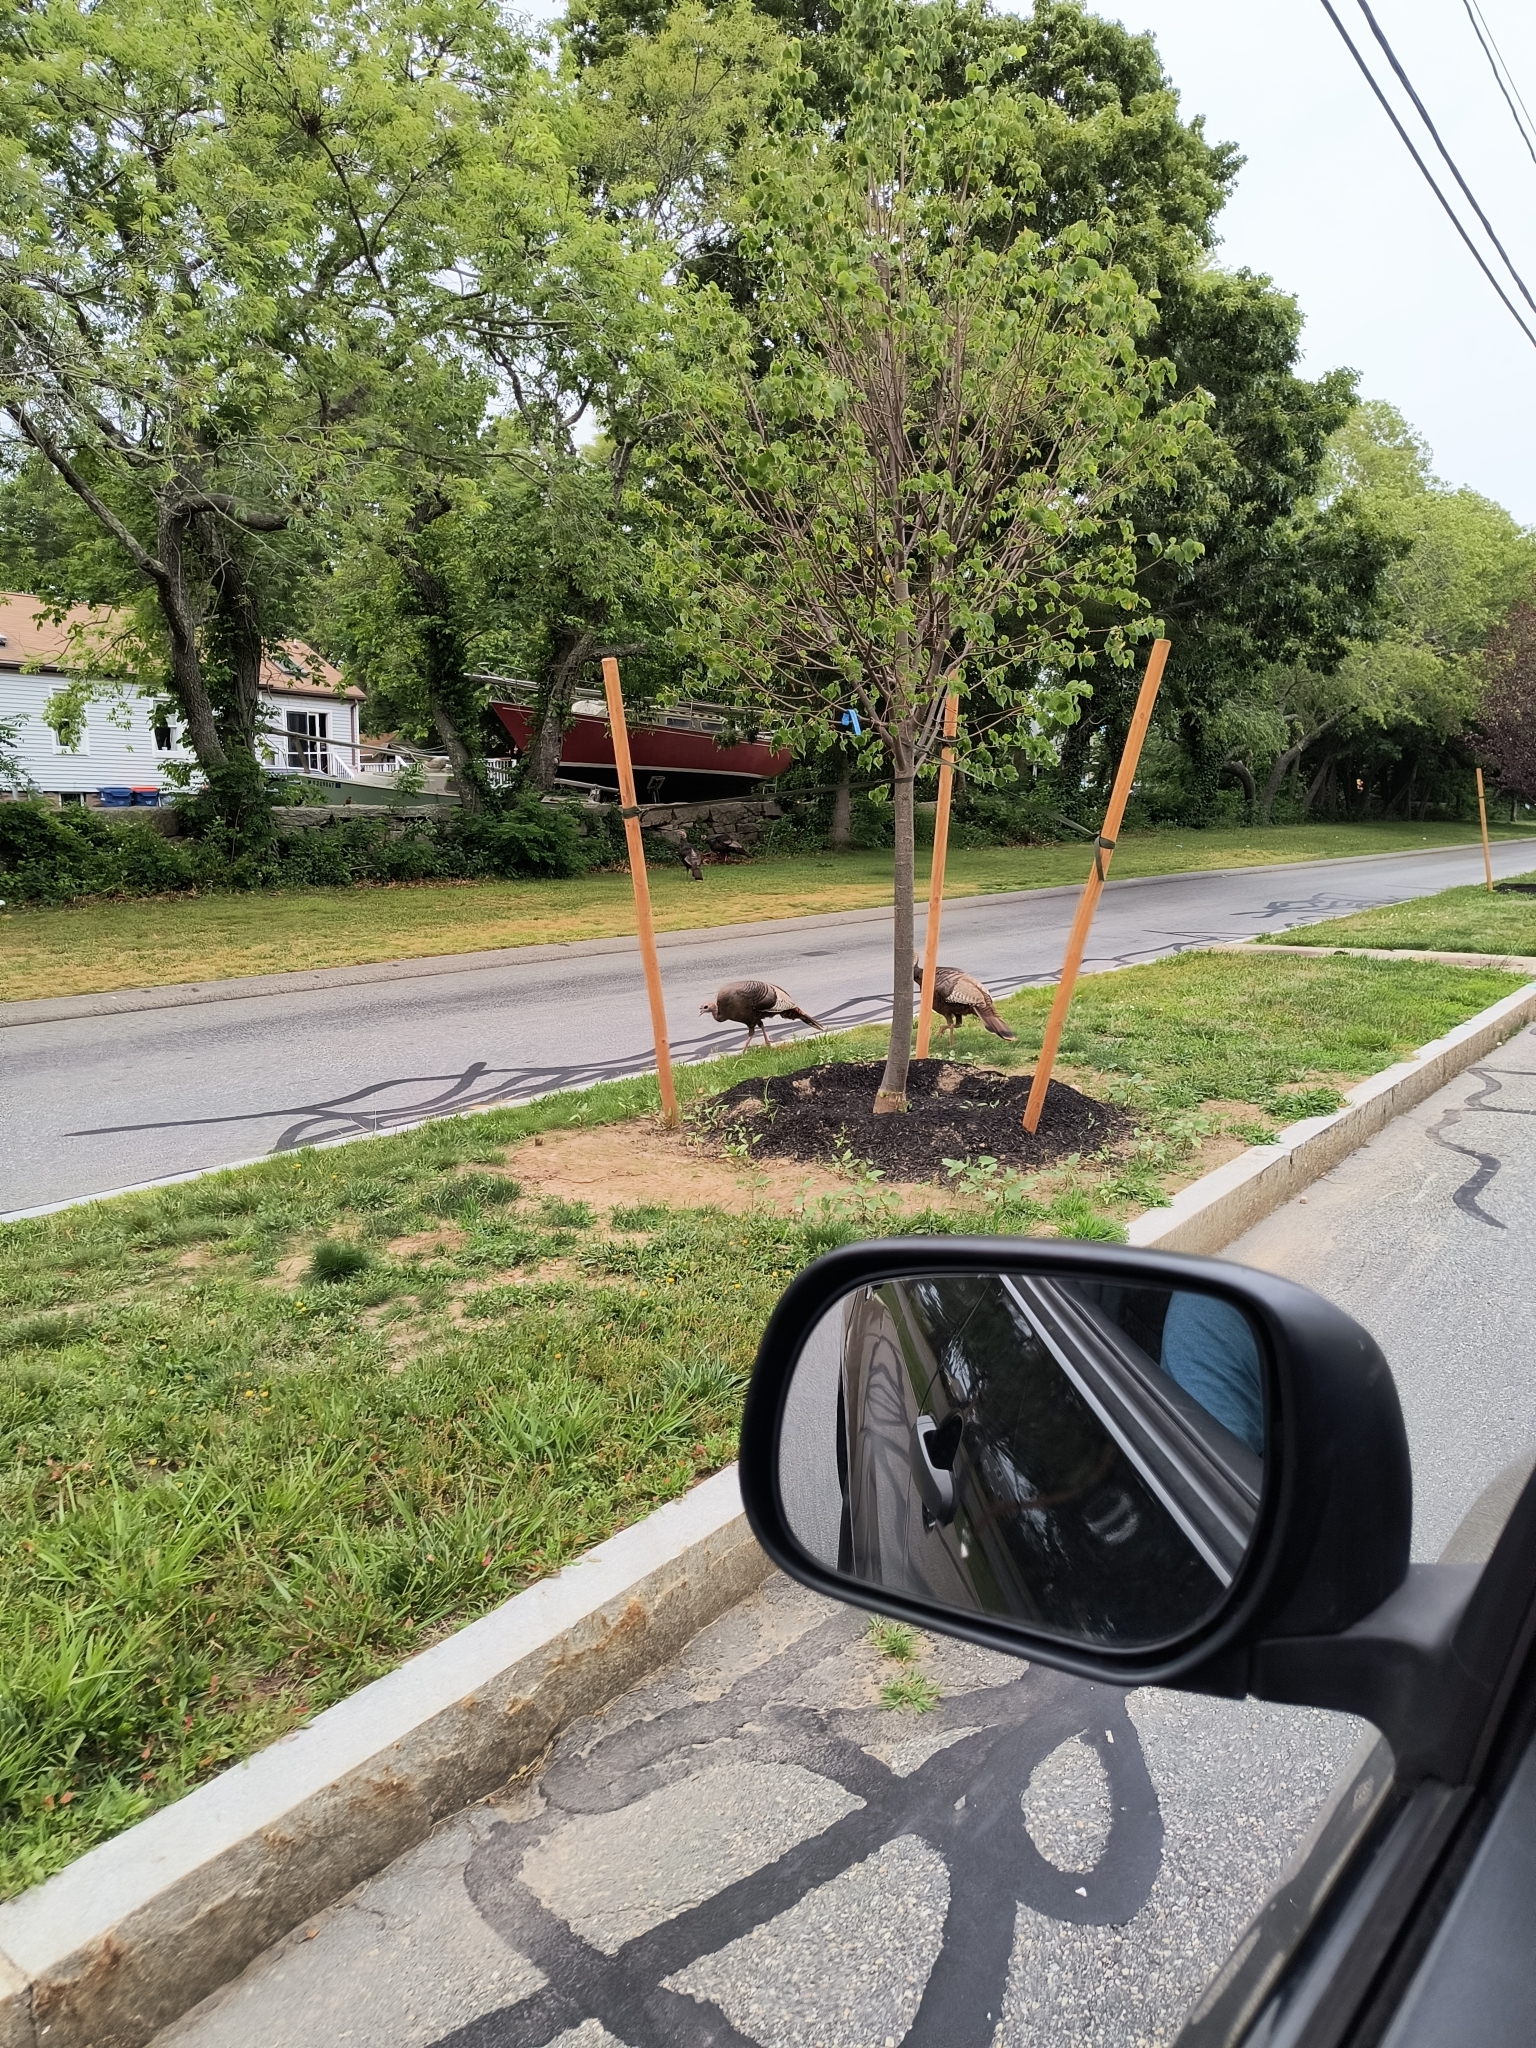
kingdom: Animalia
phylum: Chordata
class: Aves
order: Galliformes
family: Phasianidae
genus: Meleagris
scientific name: Meleagris gallopavo
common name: Wild turkey
